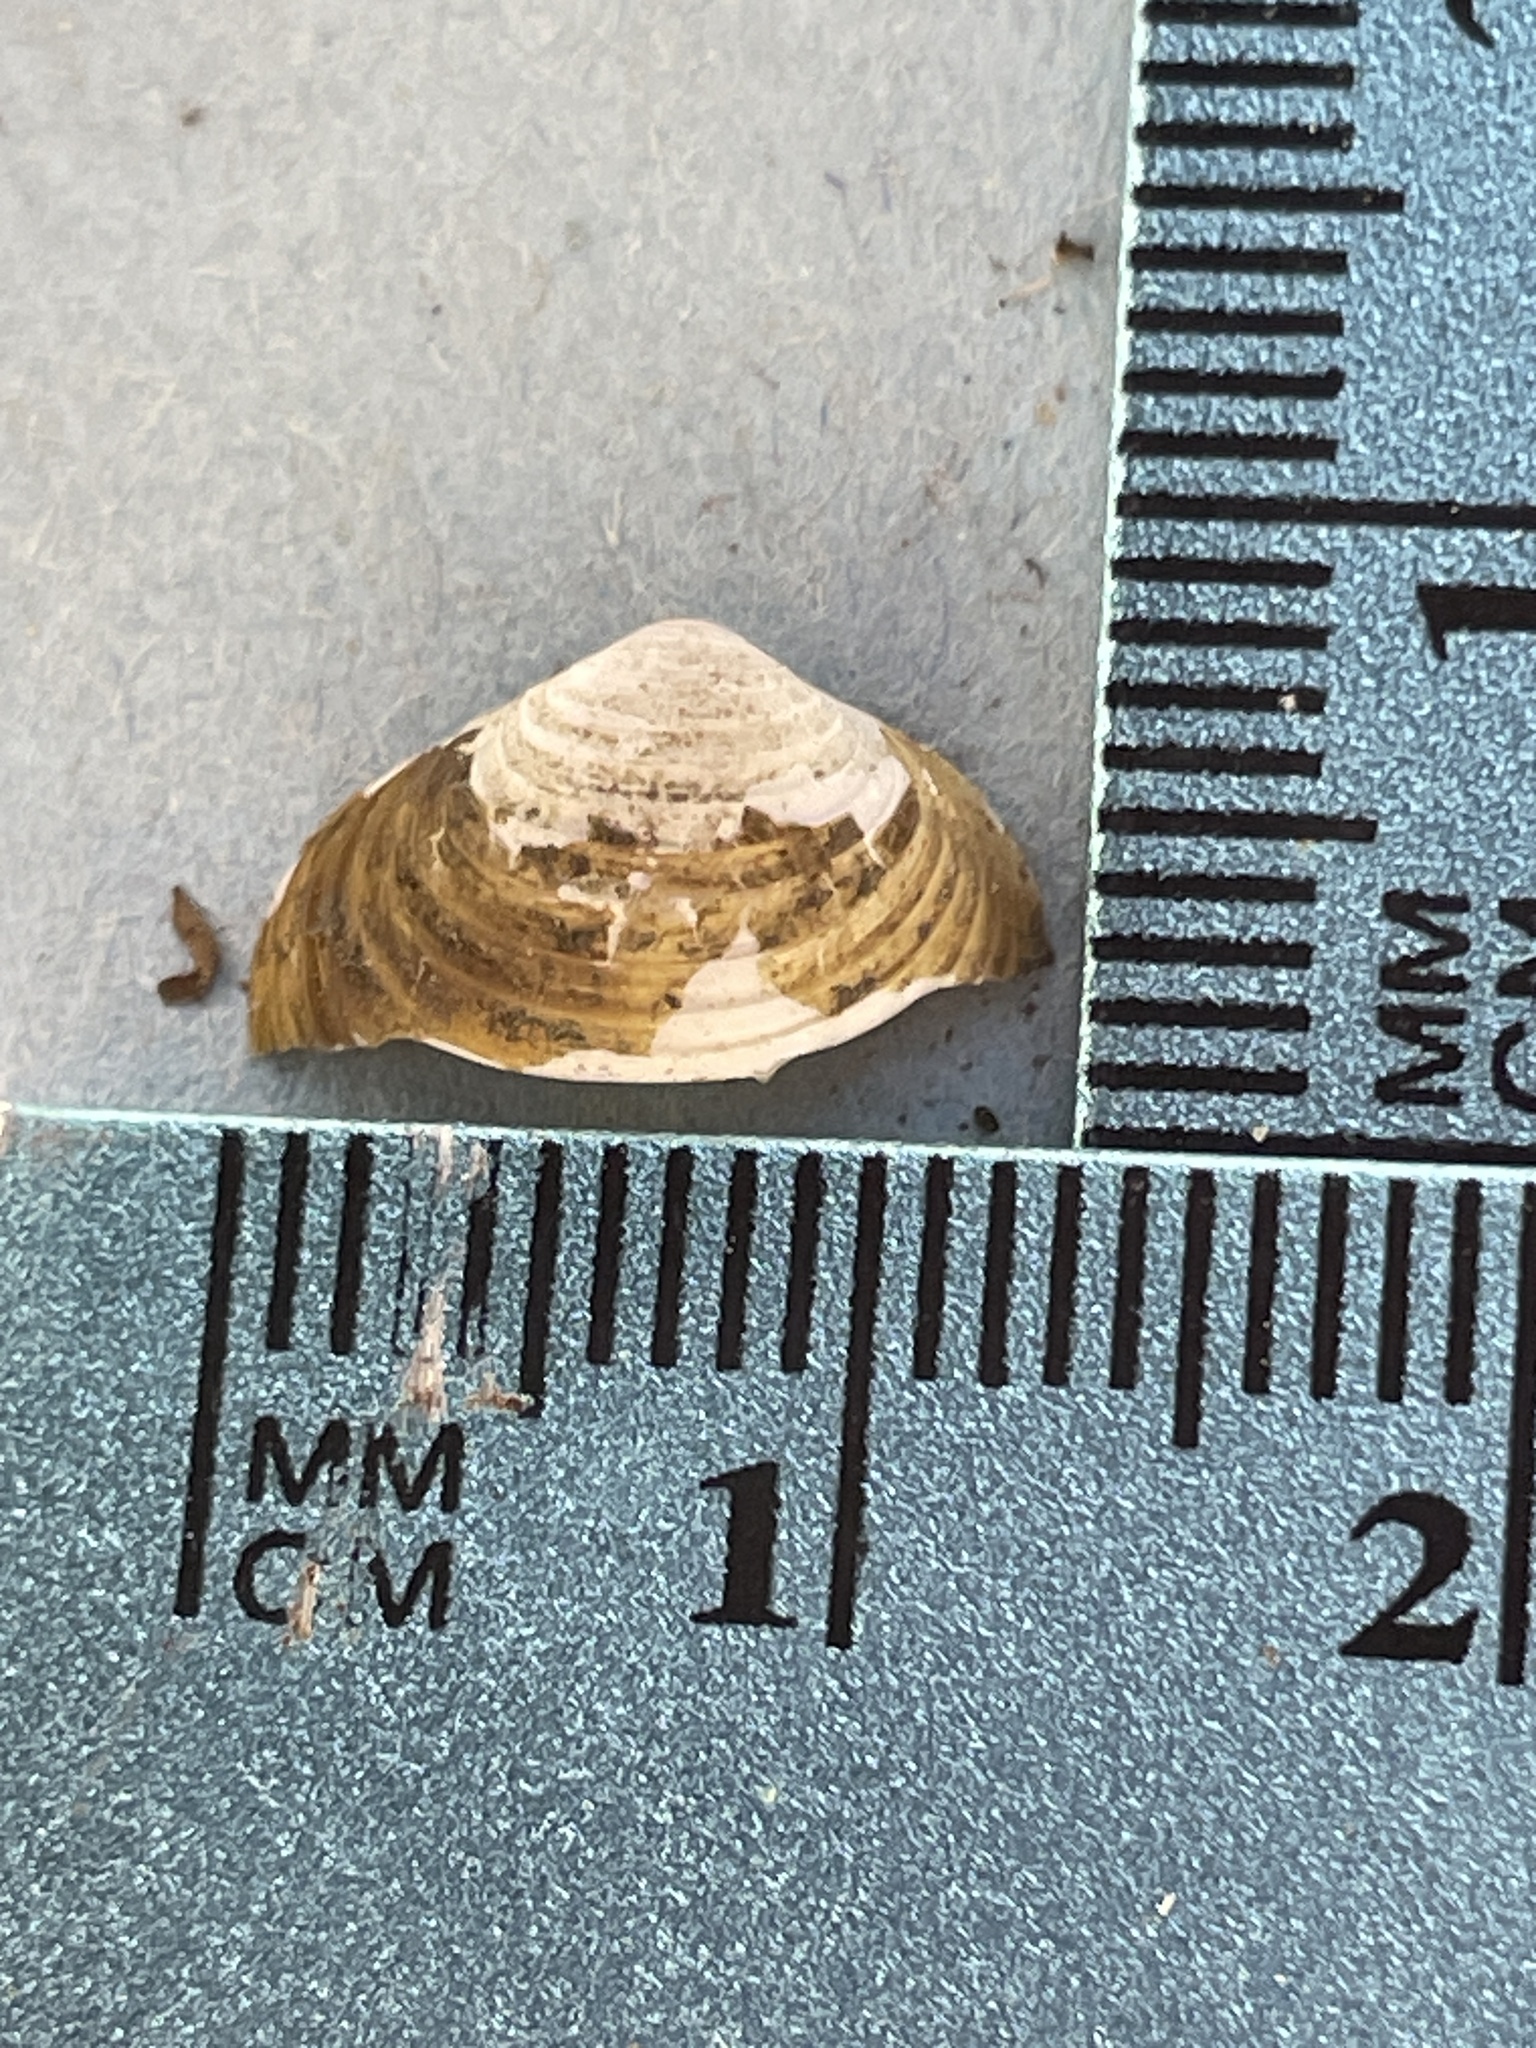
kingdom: Animalia
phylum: Mollusca
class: Bivalvia
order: Venerida
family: Cyrenidae
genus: Corbicula
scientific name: Corbicula fluminea
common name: Asian clam
